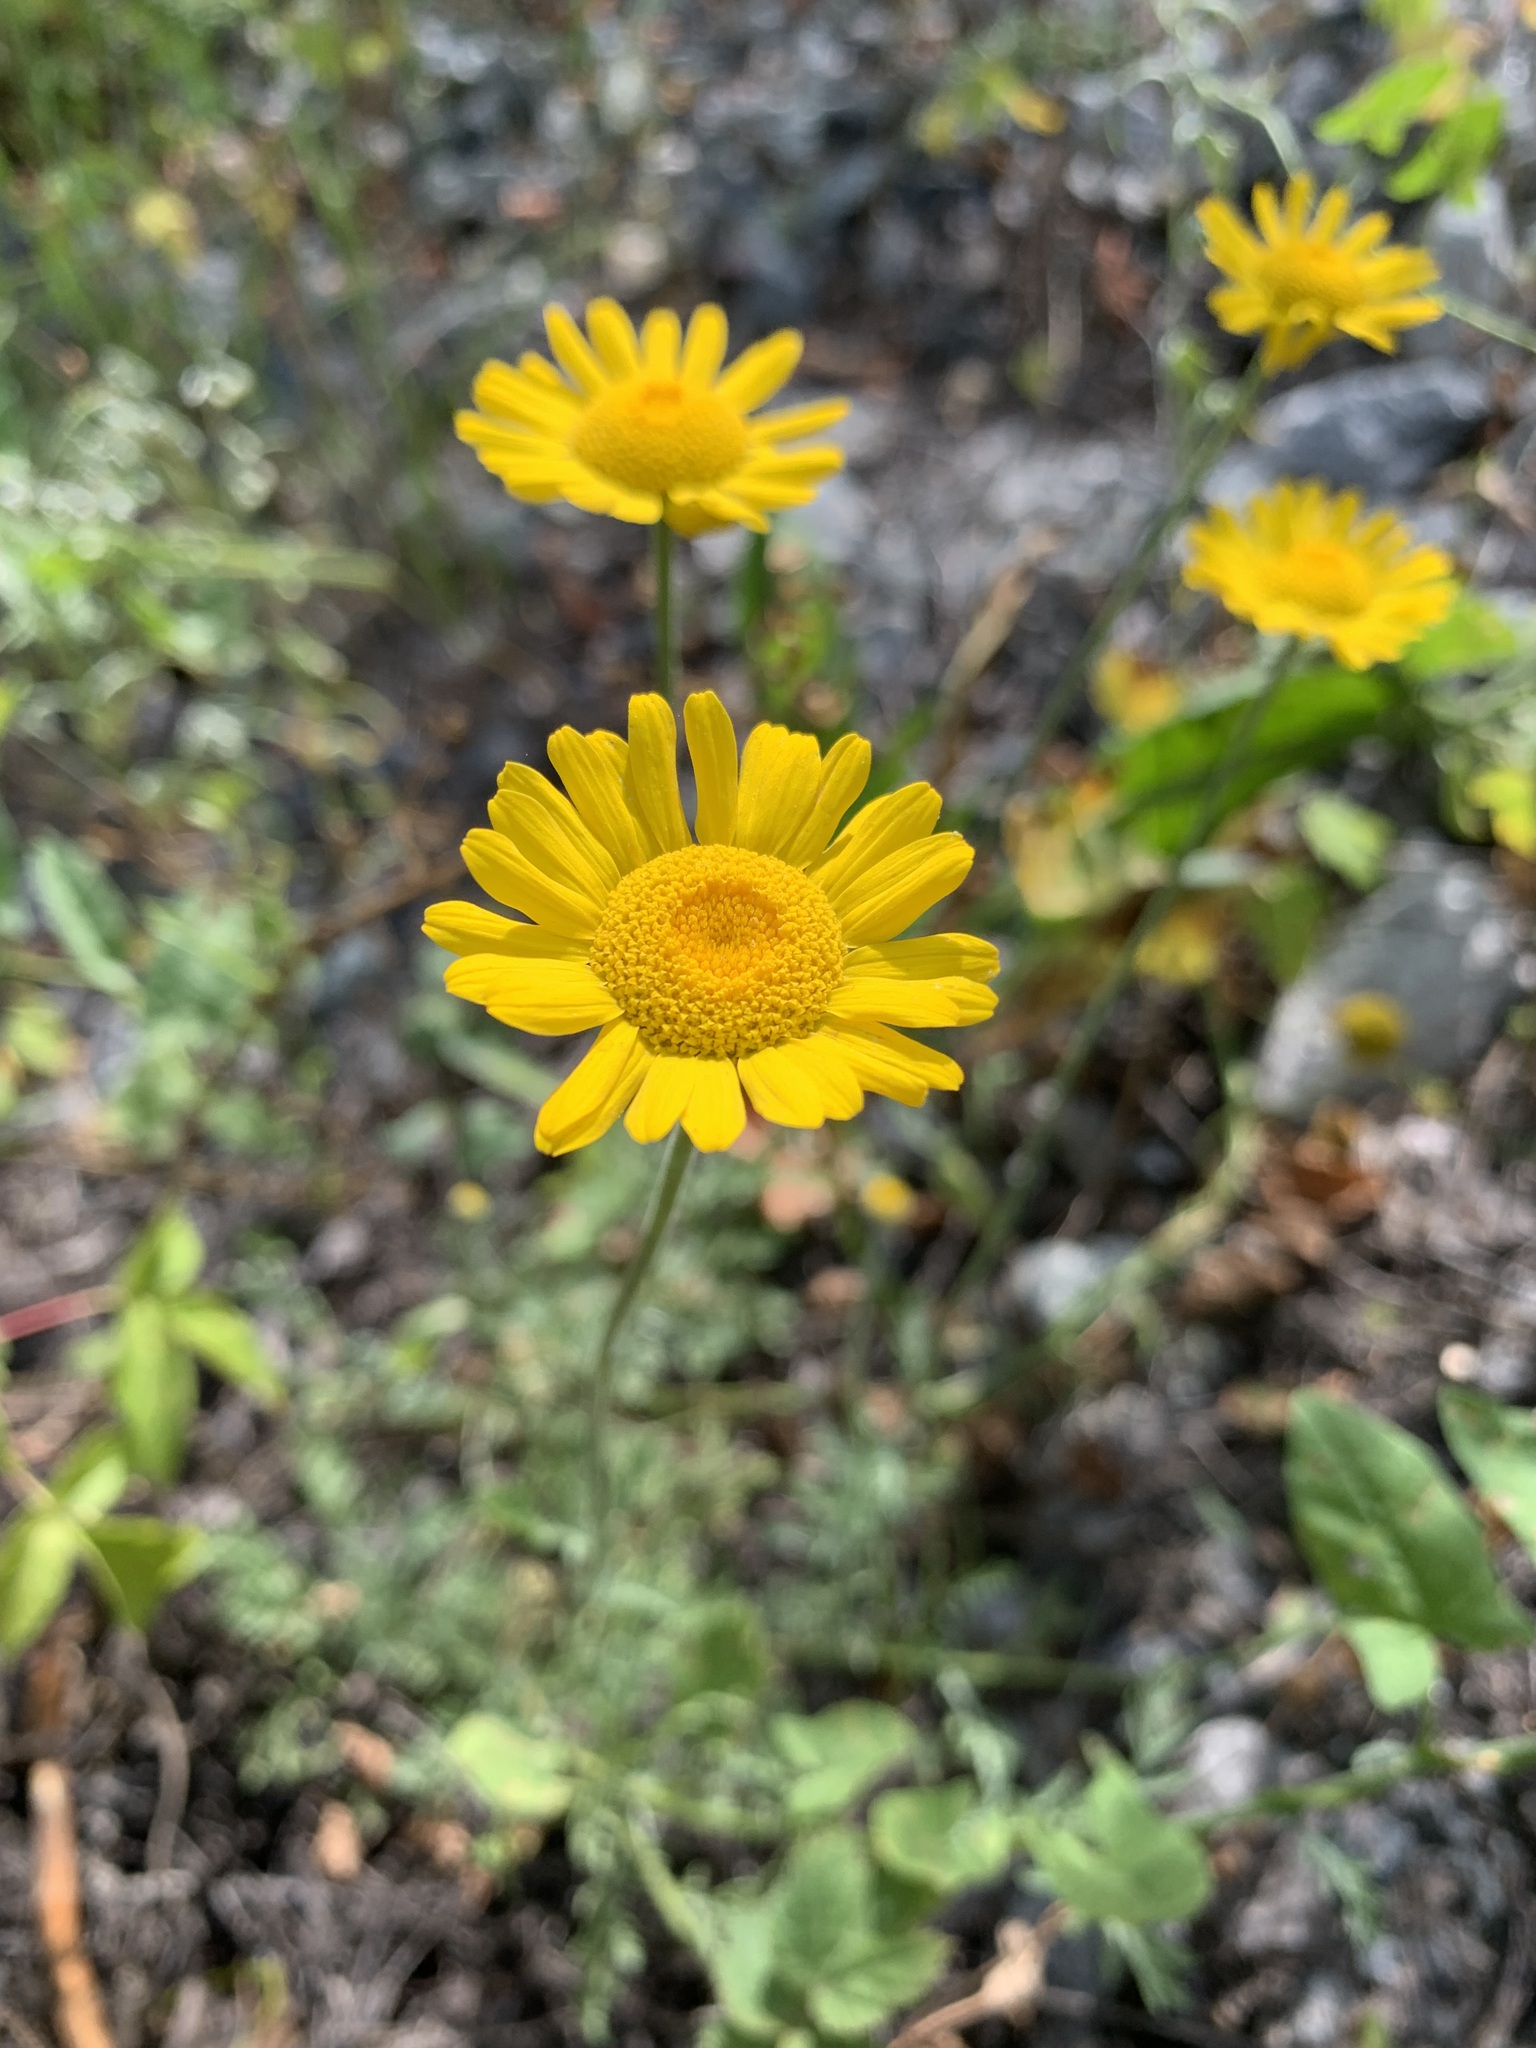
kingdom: Plantae
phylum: Tracheophyta
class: Magnoliopsida
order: Asterales
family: Asteraceae
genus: Cota
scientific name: Cota tinctoria
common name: Golden chamomile
